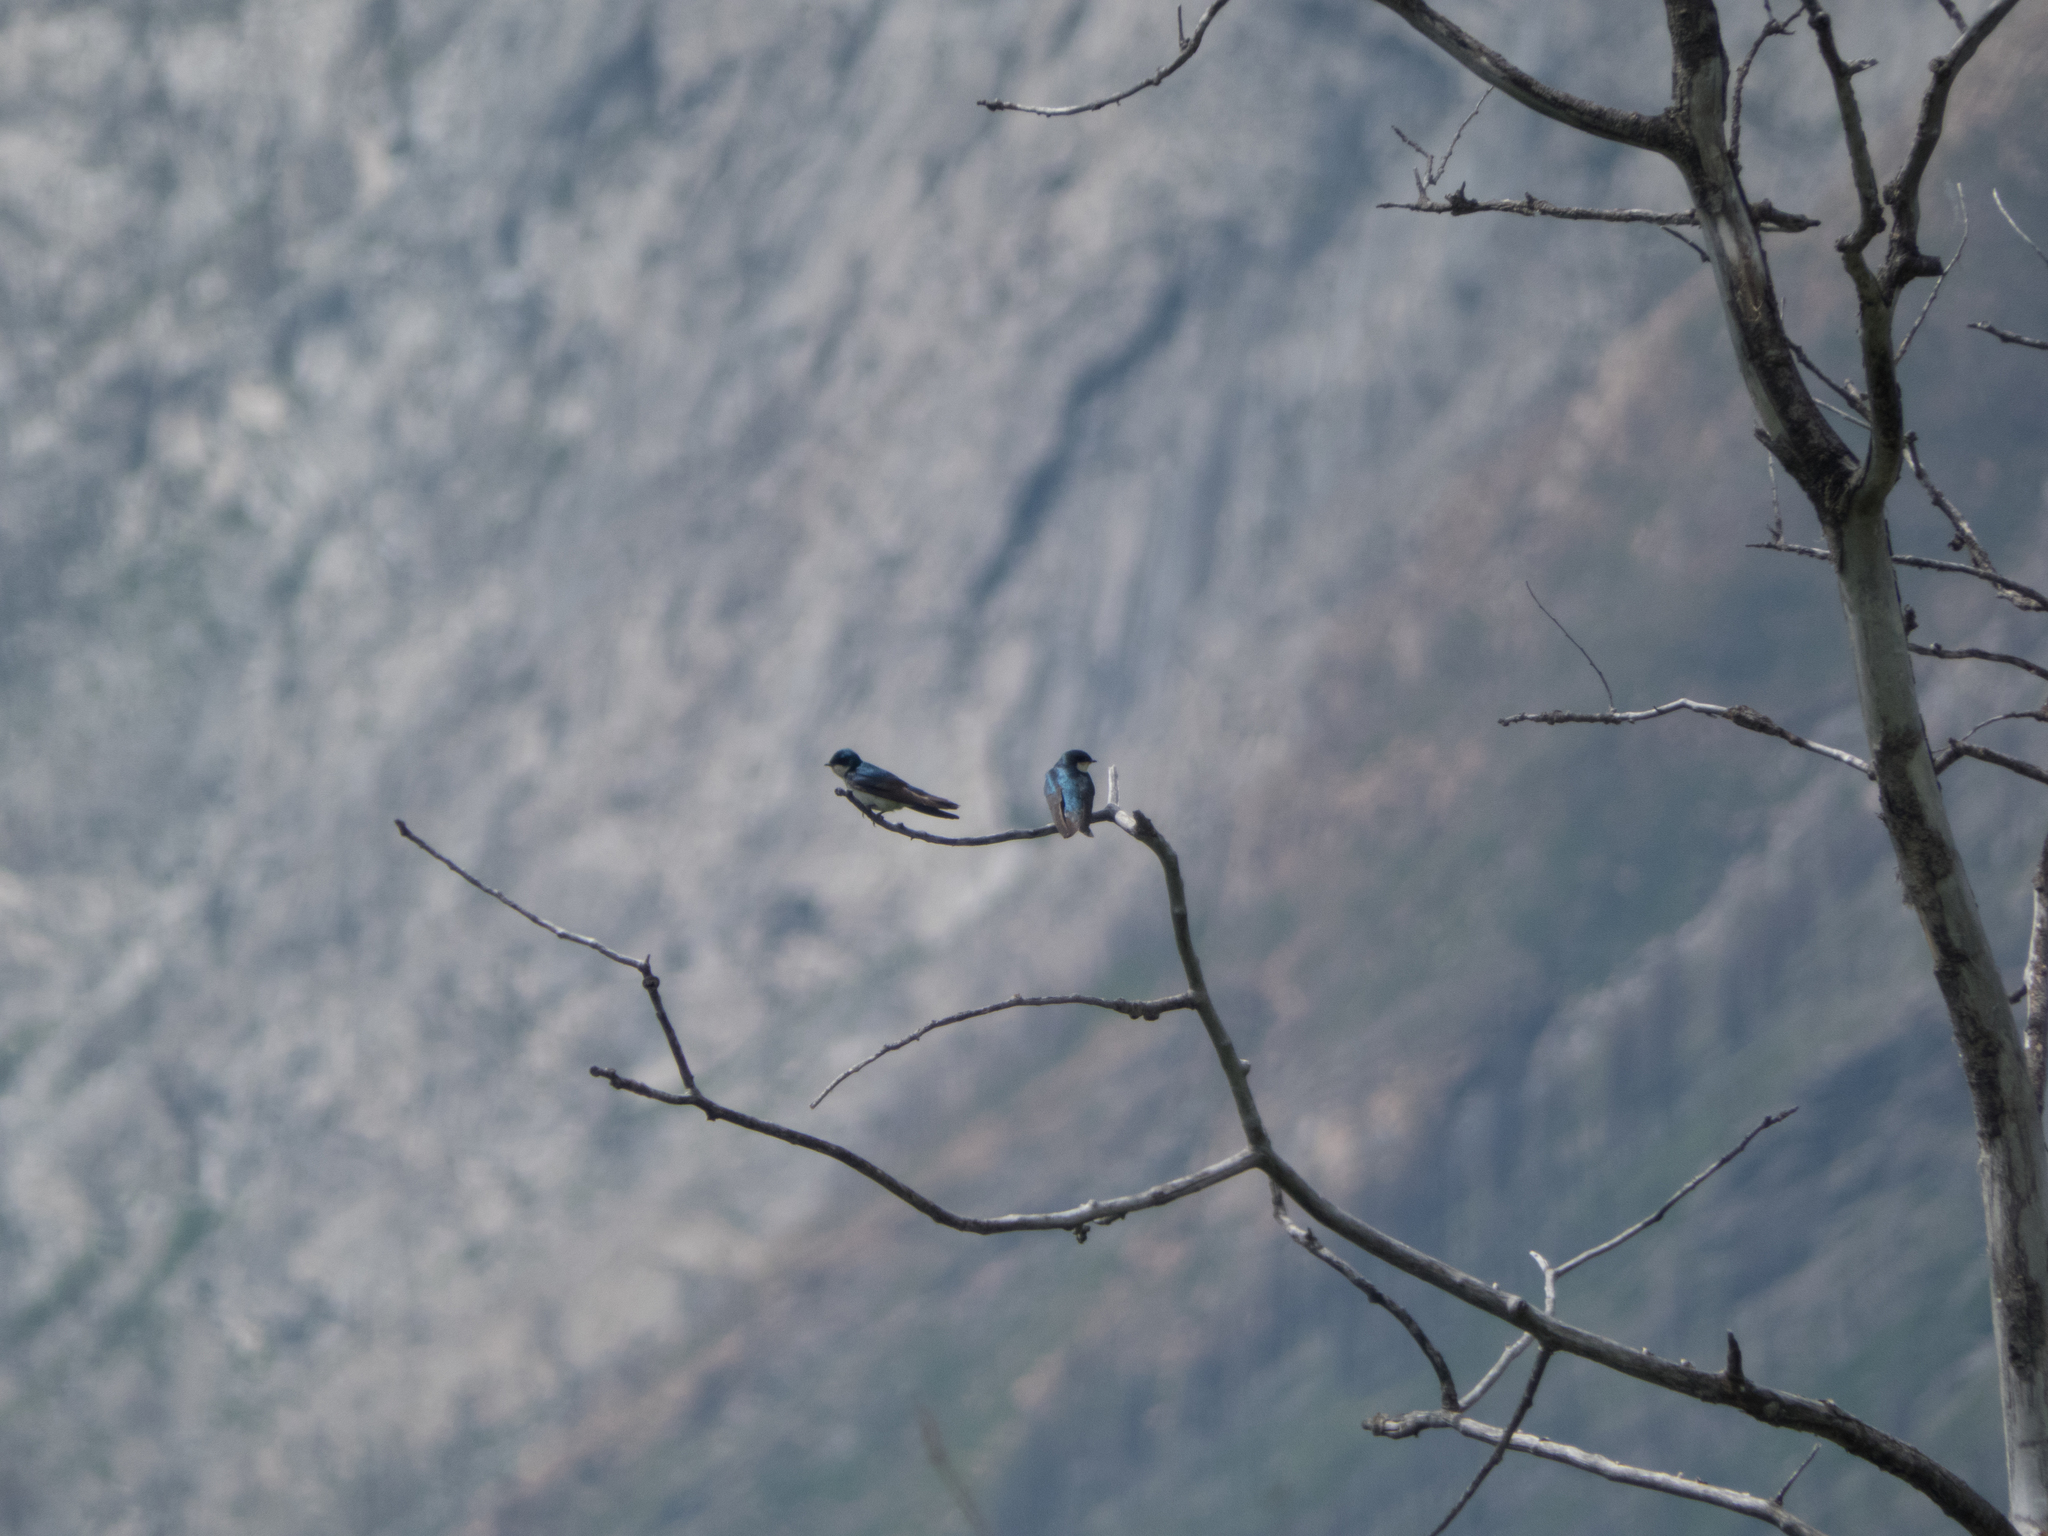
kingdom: Animalia
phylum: Chordata
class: Aves
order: Passeriformes
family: Hirundinidae
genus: Tachycineta
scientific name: Tachycineta bicolor
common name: Tree swallow
